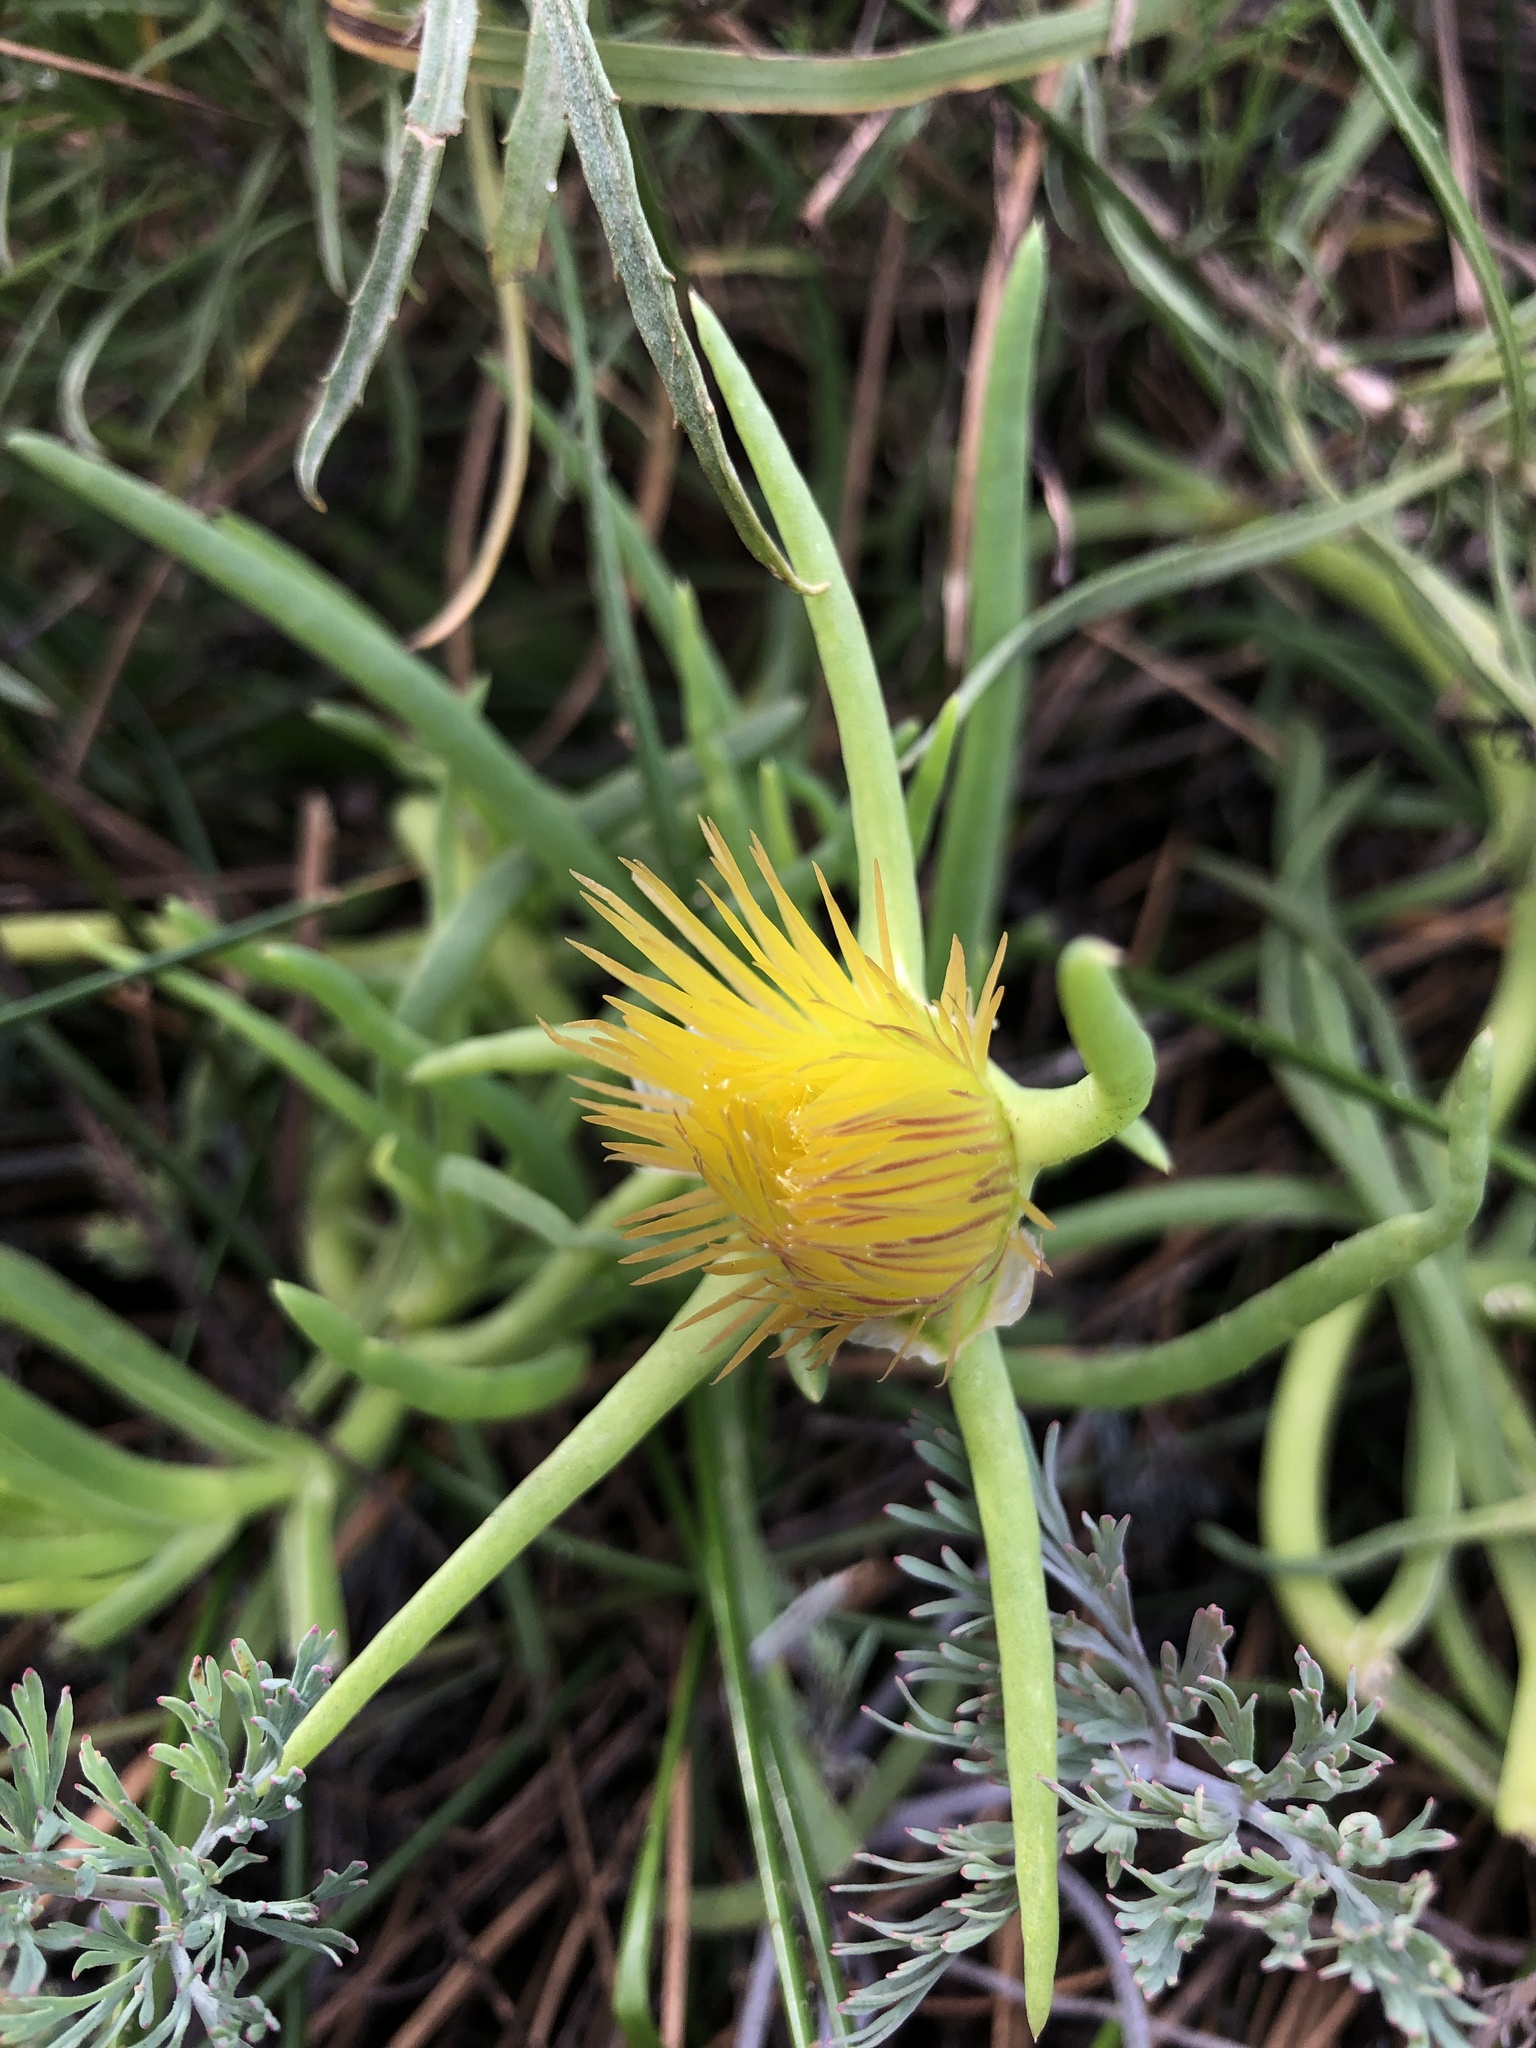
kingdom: Plantae
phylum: Tracheophyta
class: Magnoliopsida
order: Caryophyllales
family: Aizoaceae
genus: Conicosia
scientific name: Conicosia pugioniformis
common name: Narrow-leaved iceplant
